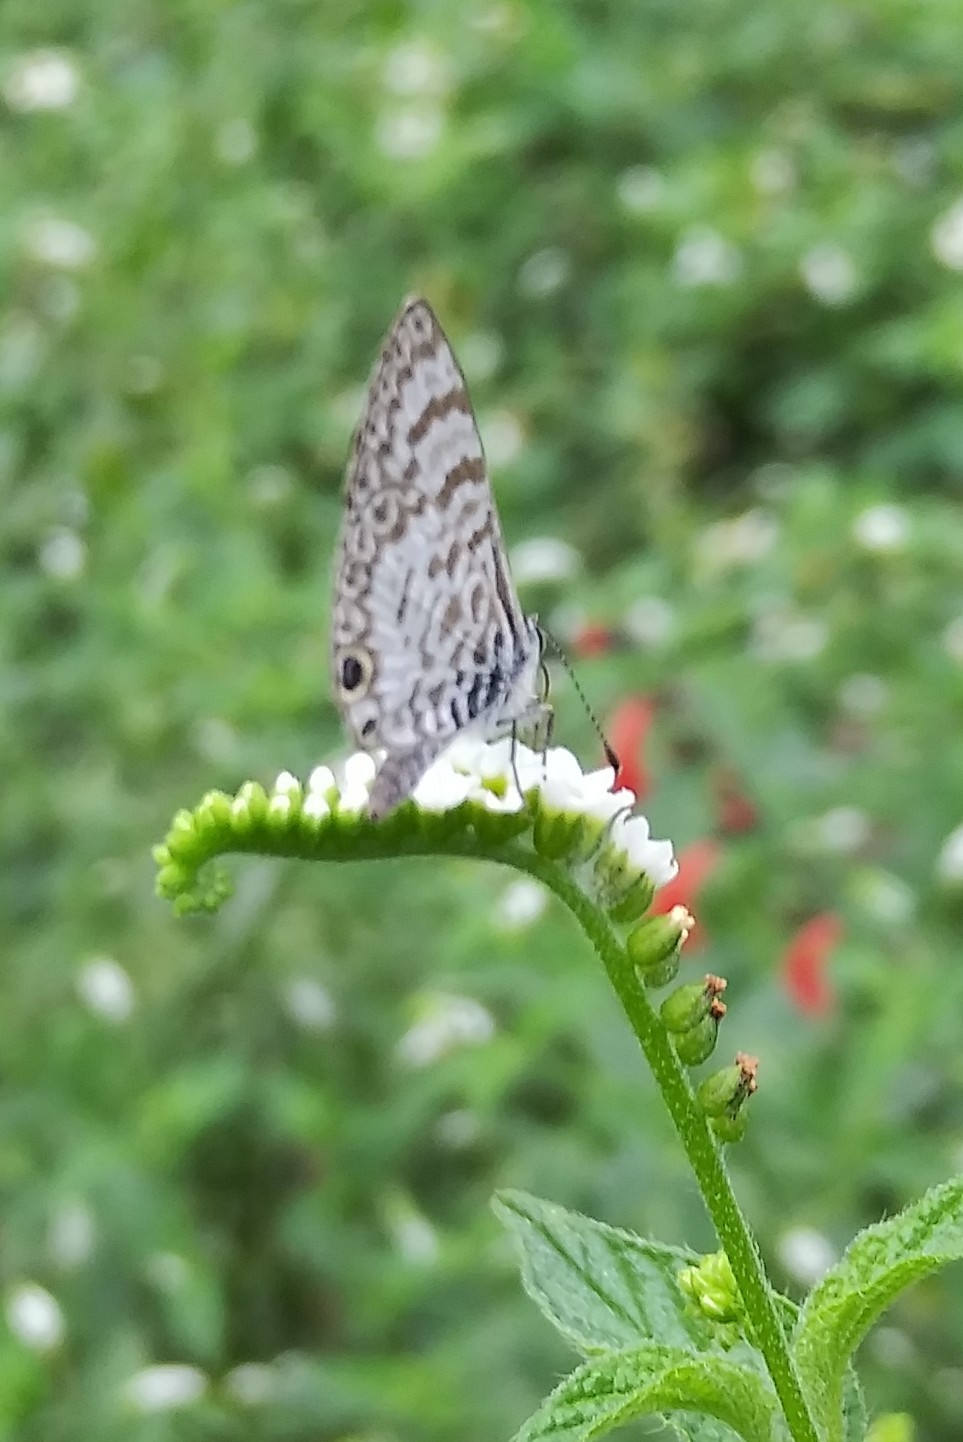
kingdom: Animalia
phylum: Arthropoda
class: Insecta
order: Lepidoptera
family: Lycaenidae
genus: Leptotes
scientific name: Leptotes cassius
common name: Cassius blue
